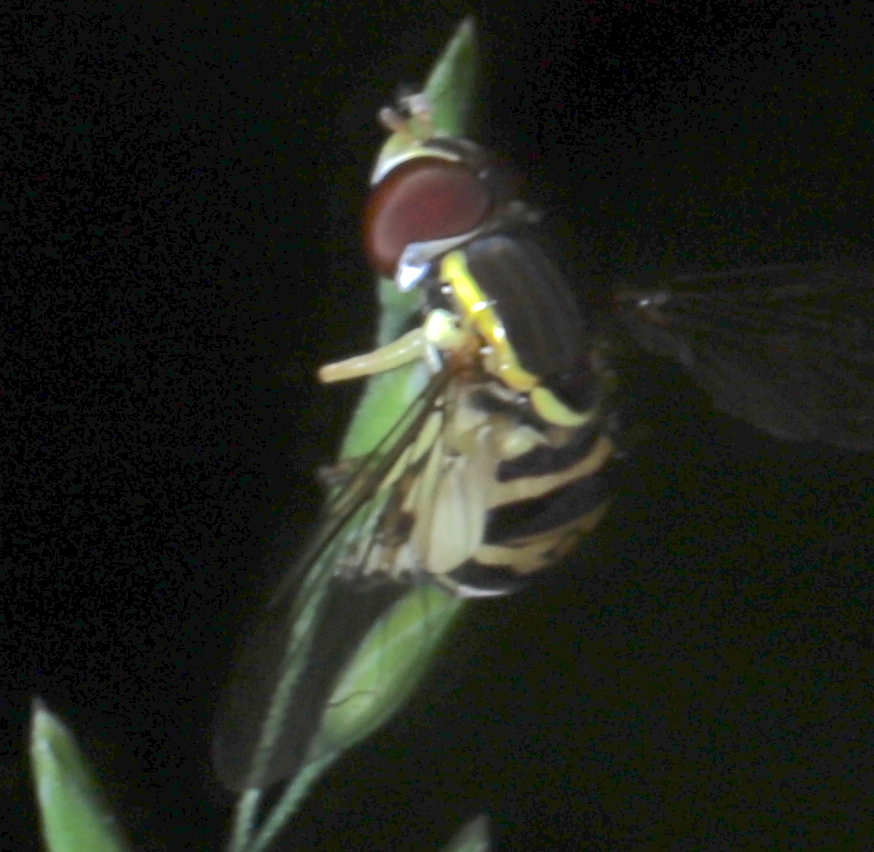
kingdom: Animalia
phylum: Arthropoda
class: Insecta
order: Diptera
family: Syrphidae
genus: Toxomerus
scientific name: Toxomerus geminatus
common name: Eastern calligrapher
